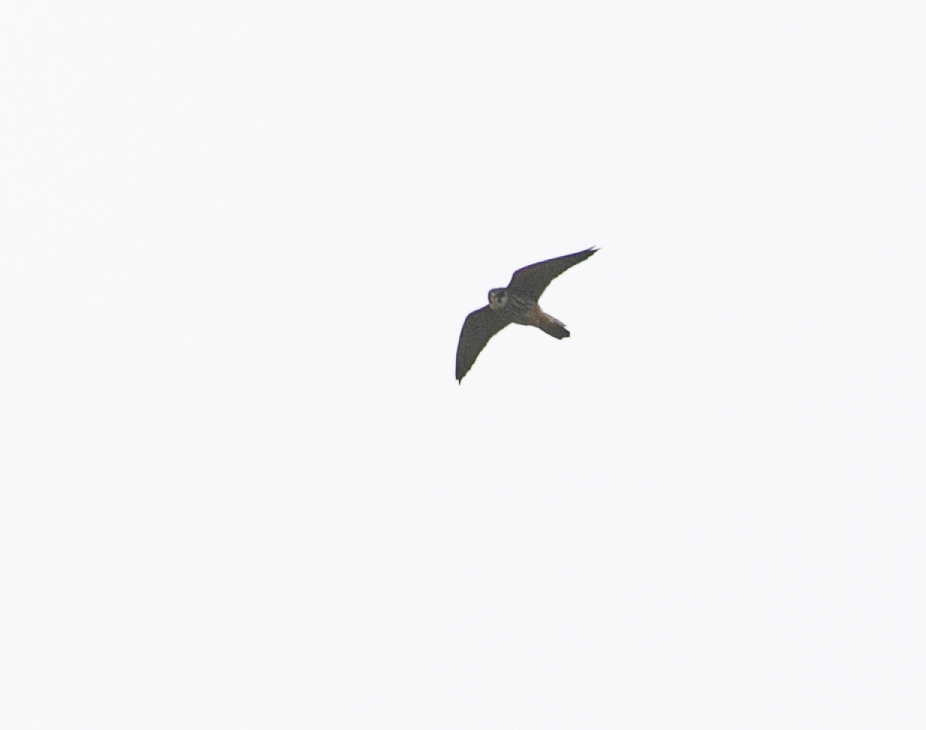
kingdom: Animalia
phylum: Chordata
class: Aves
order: Falconiformes
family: Falconidae
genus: Falco
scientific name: Falco subbuteo
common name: Eurasian hobby
